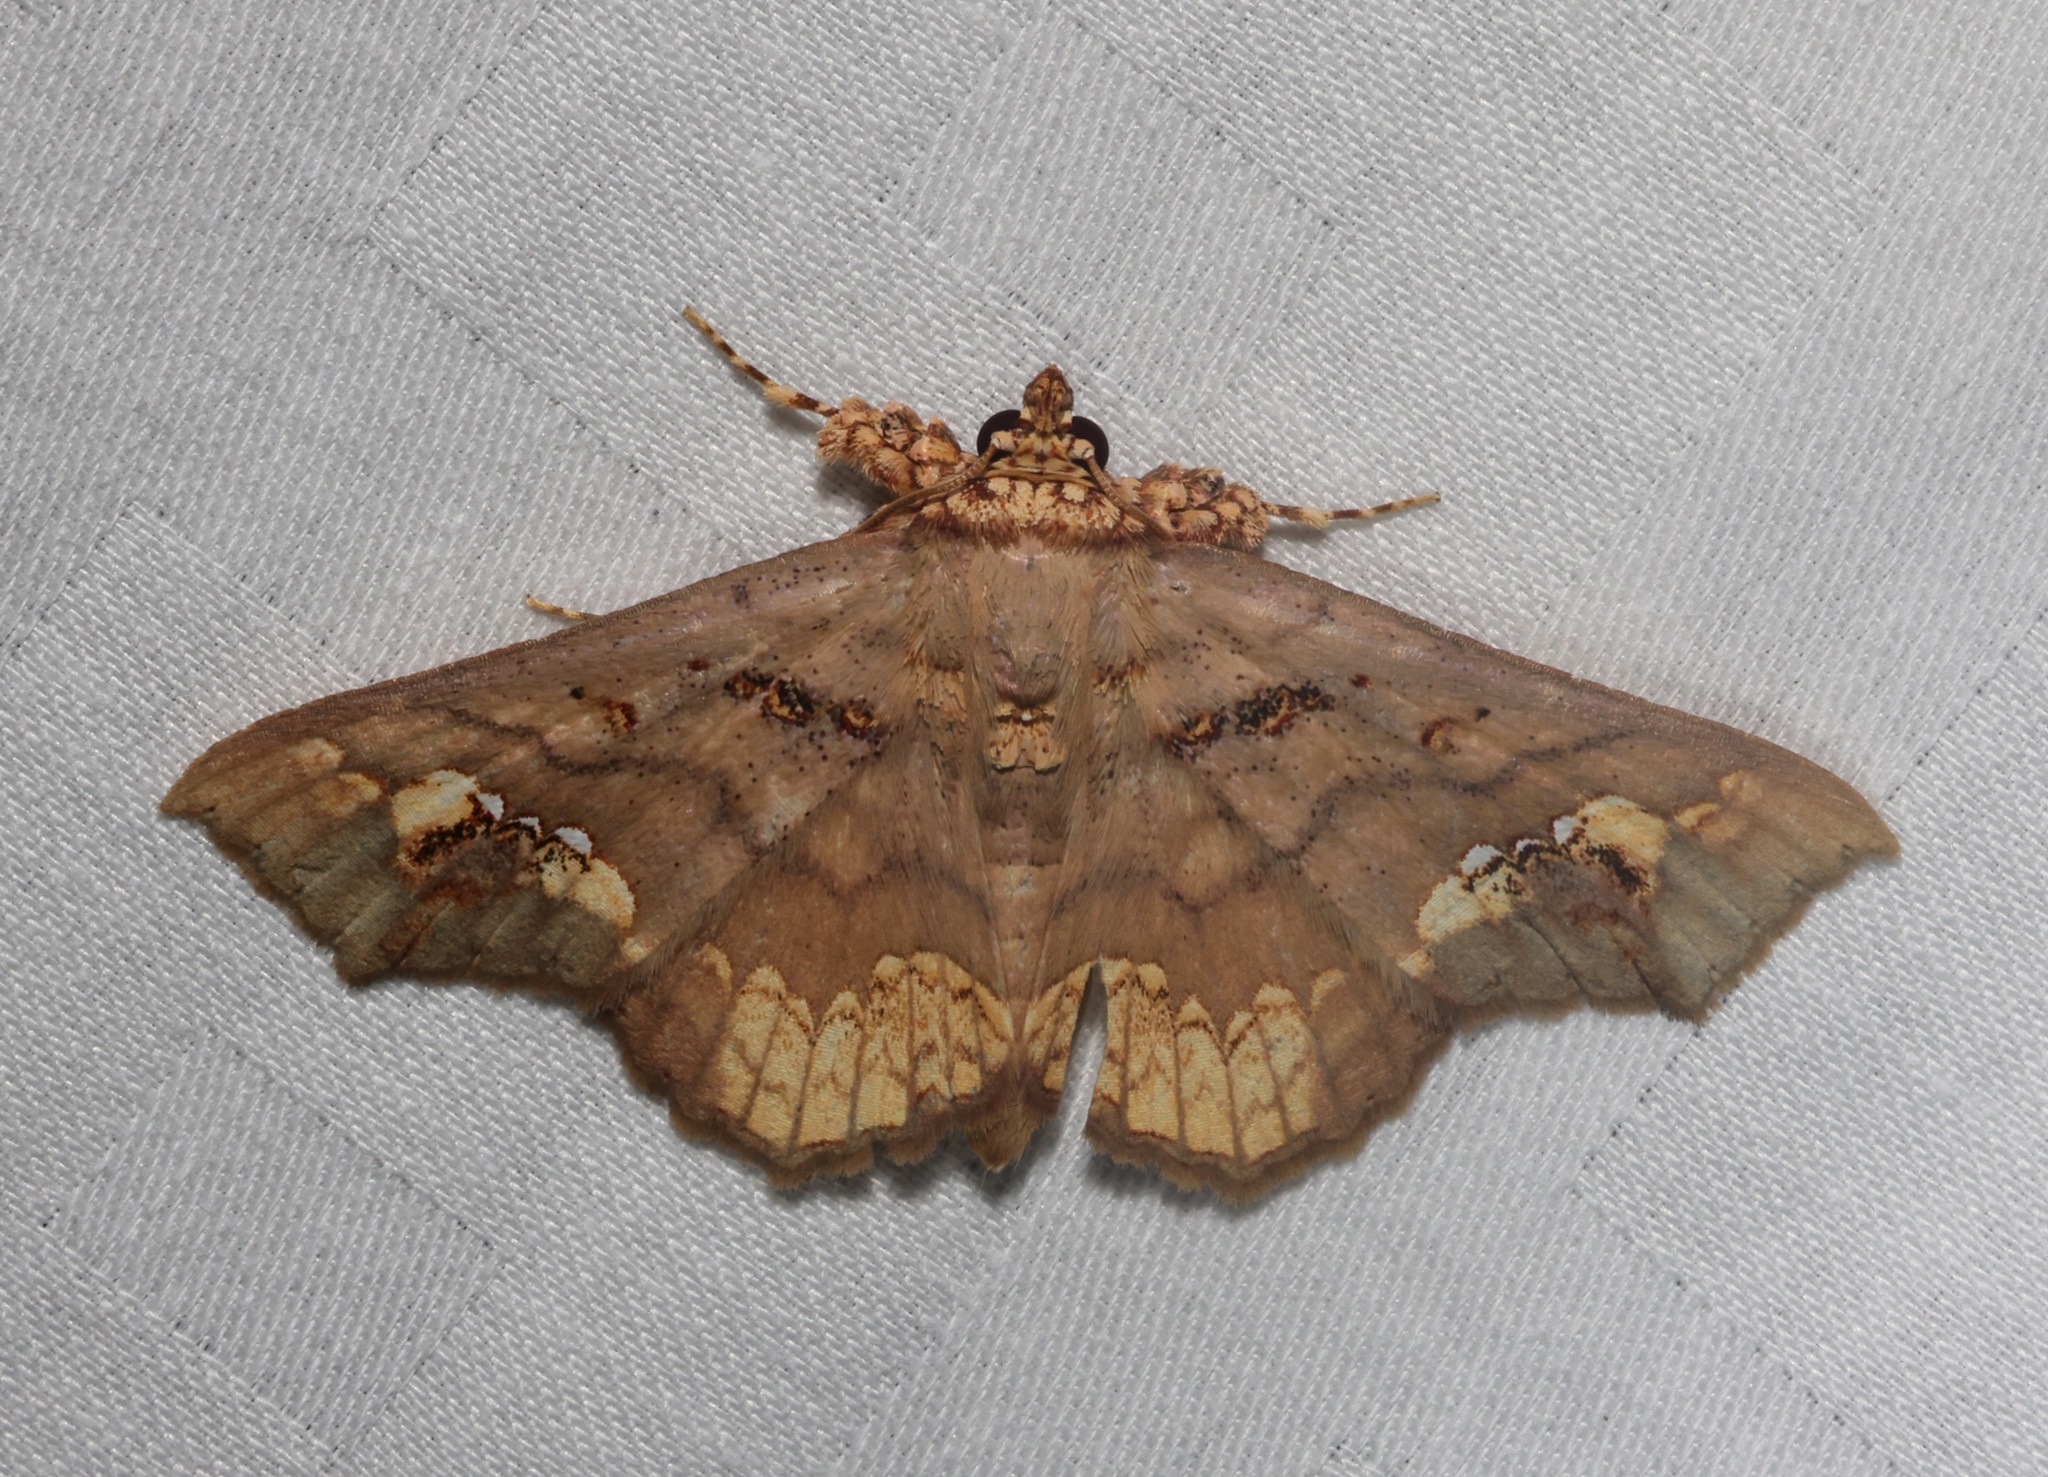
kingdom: Animalia
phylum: Arthropoda
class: Insecta
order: Lepidoptera
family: Erebidae
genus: Lopharthrum
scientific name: Lopharthrum comprimens
